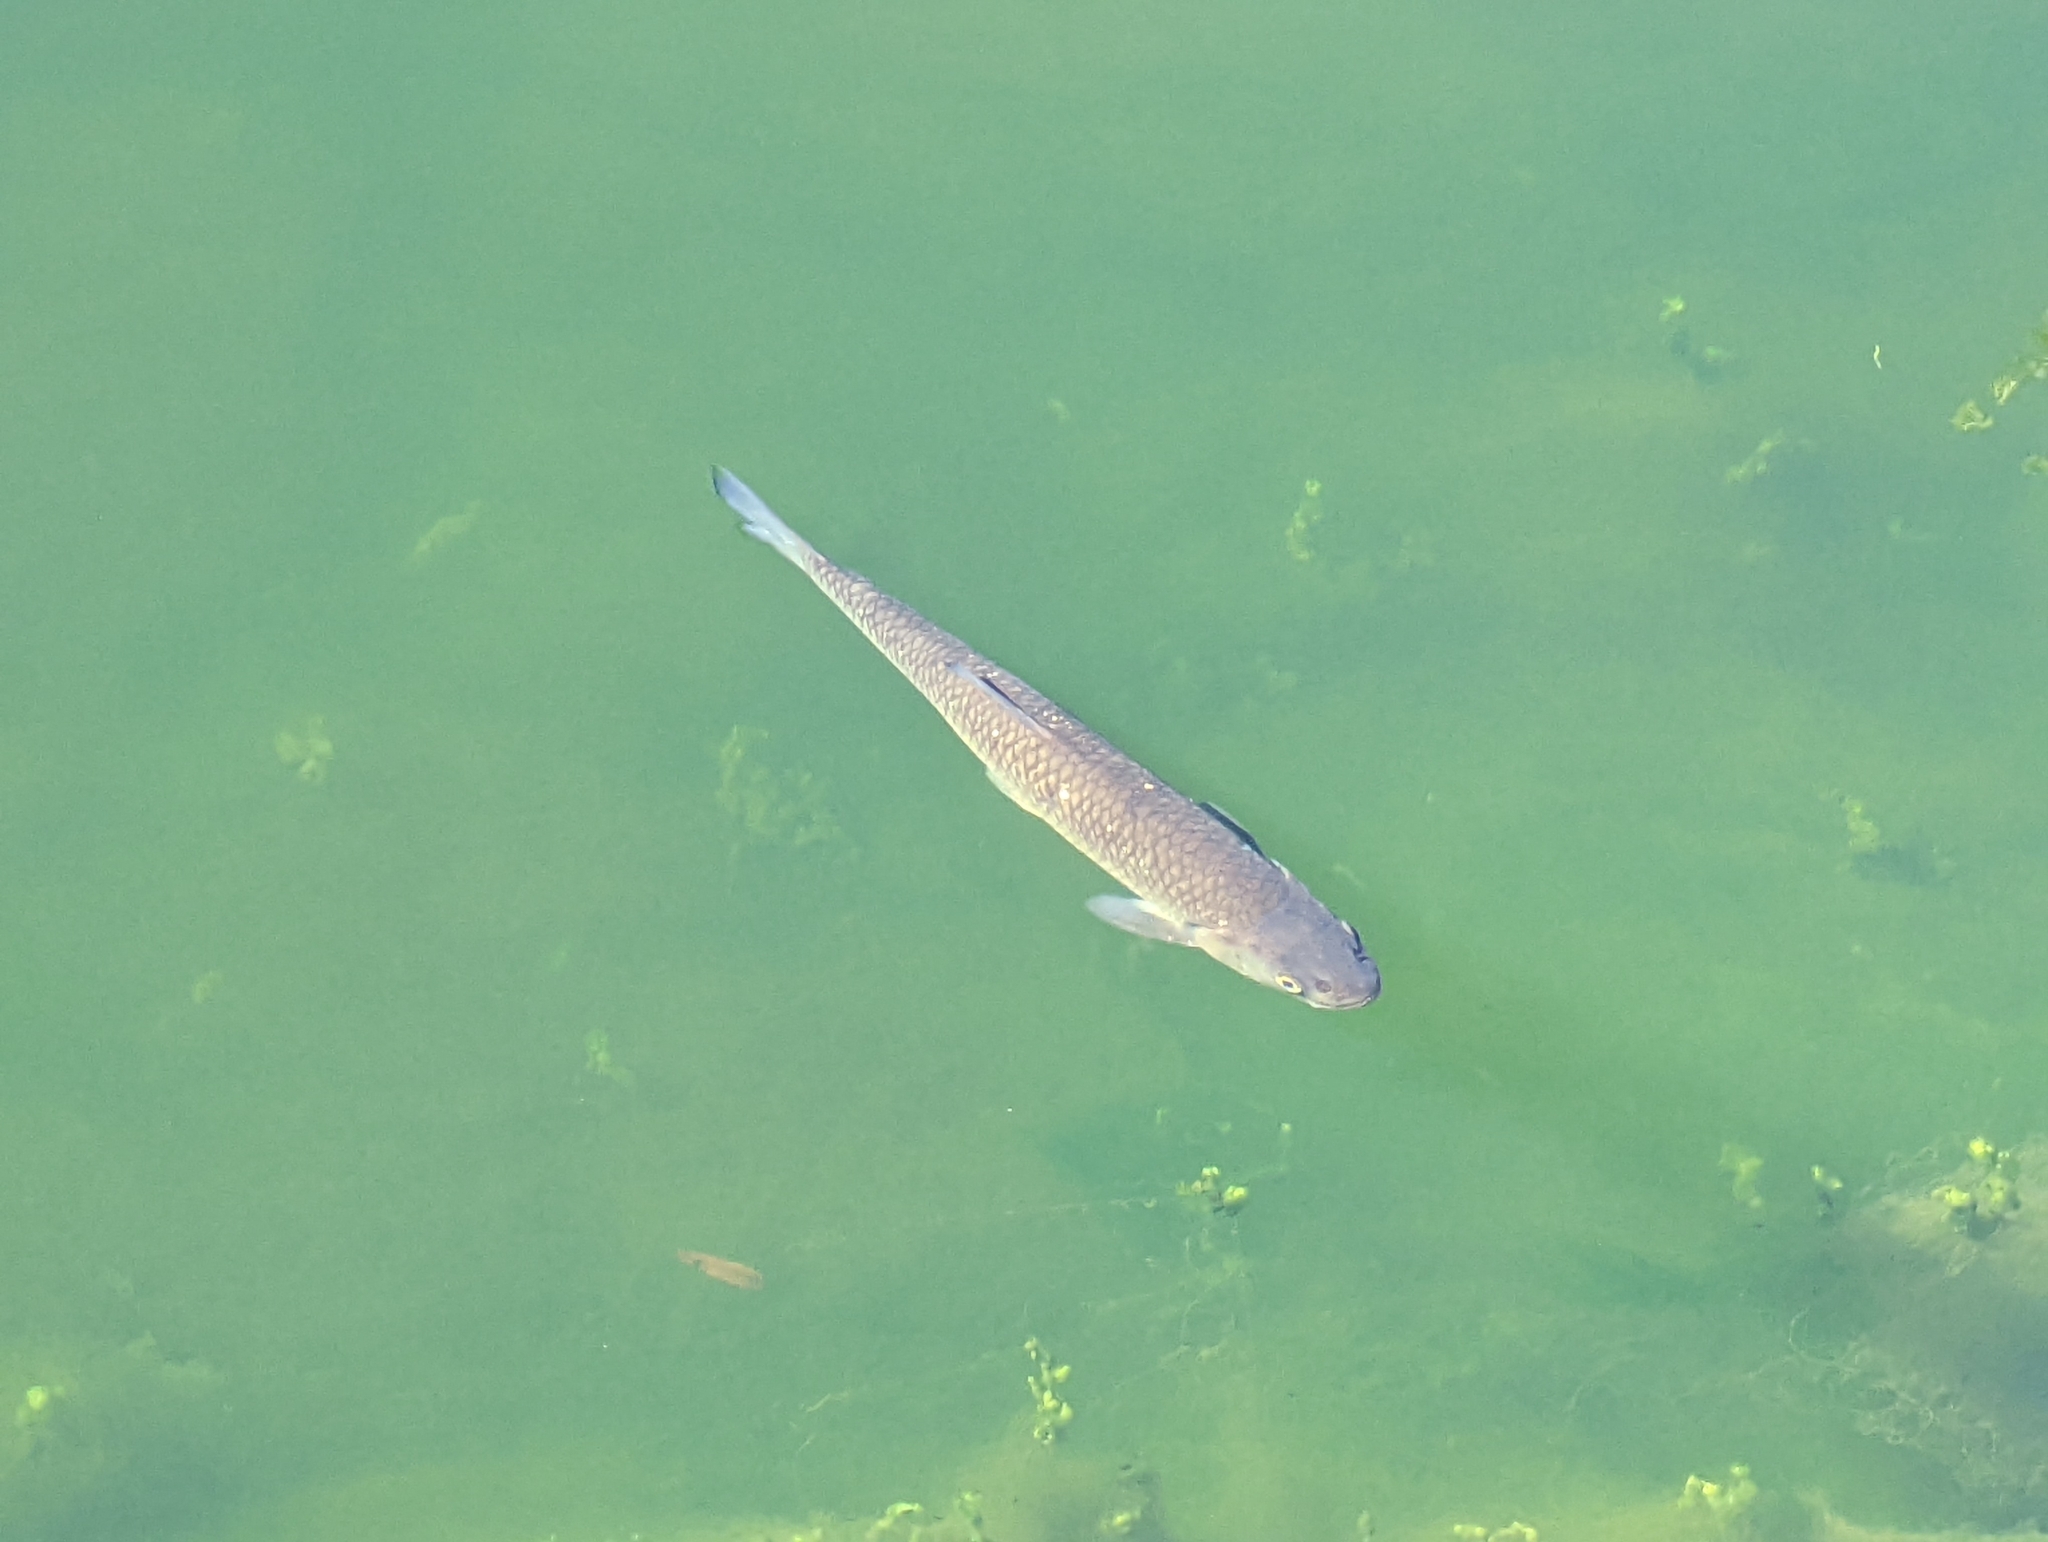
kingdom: Animalia
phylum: Chordata
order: Cypriniformes
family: Cyprinidae
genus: Squalius
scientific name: Squalius cephalus
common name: Chub
